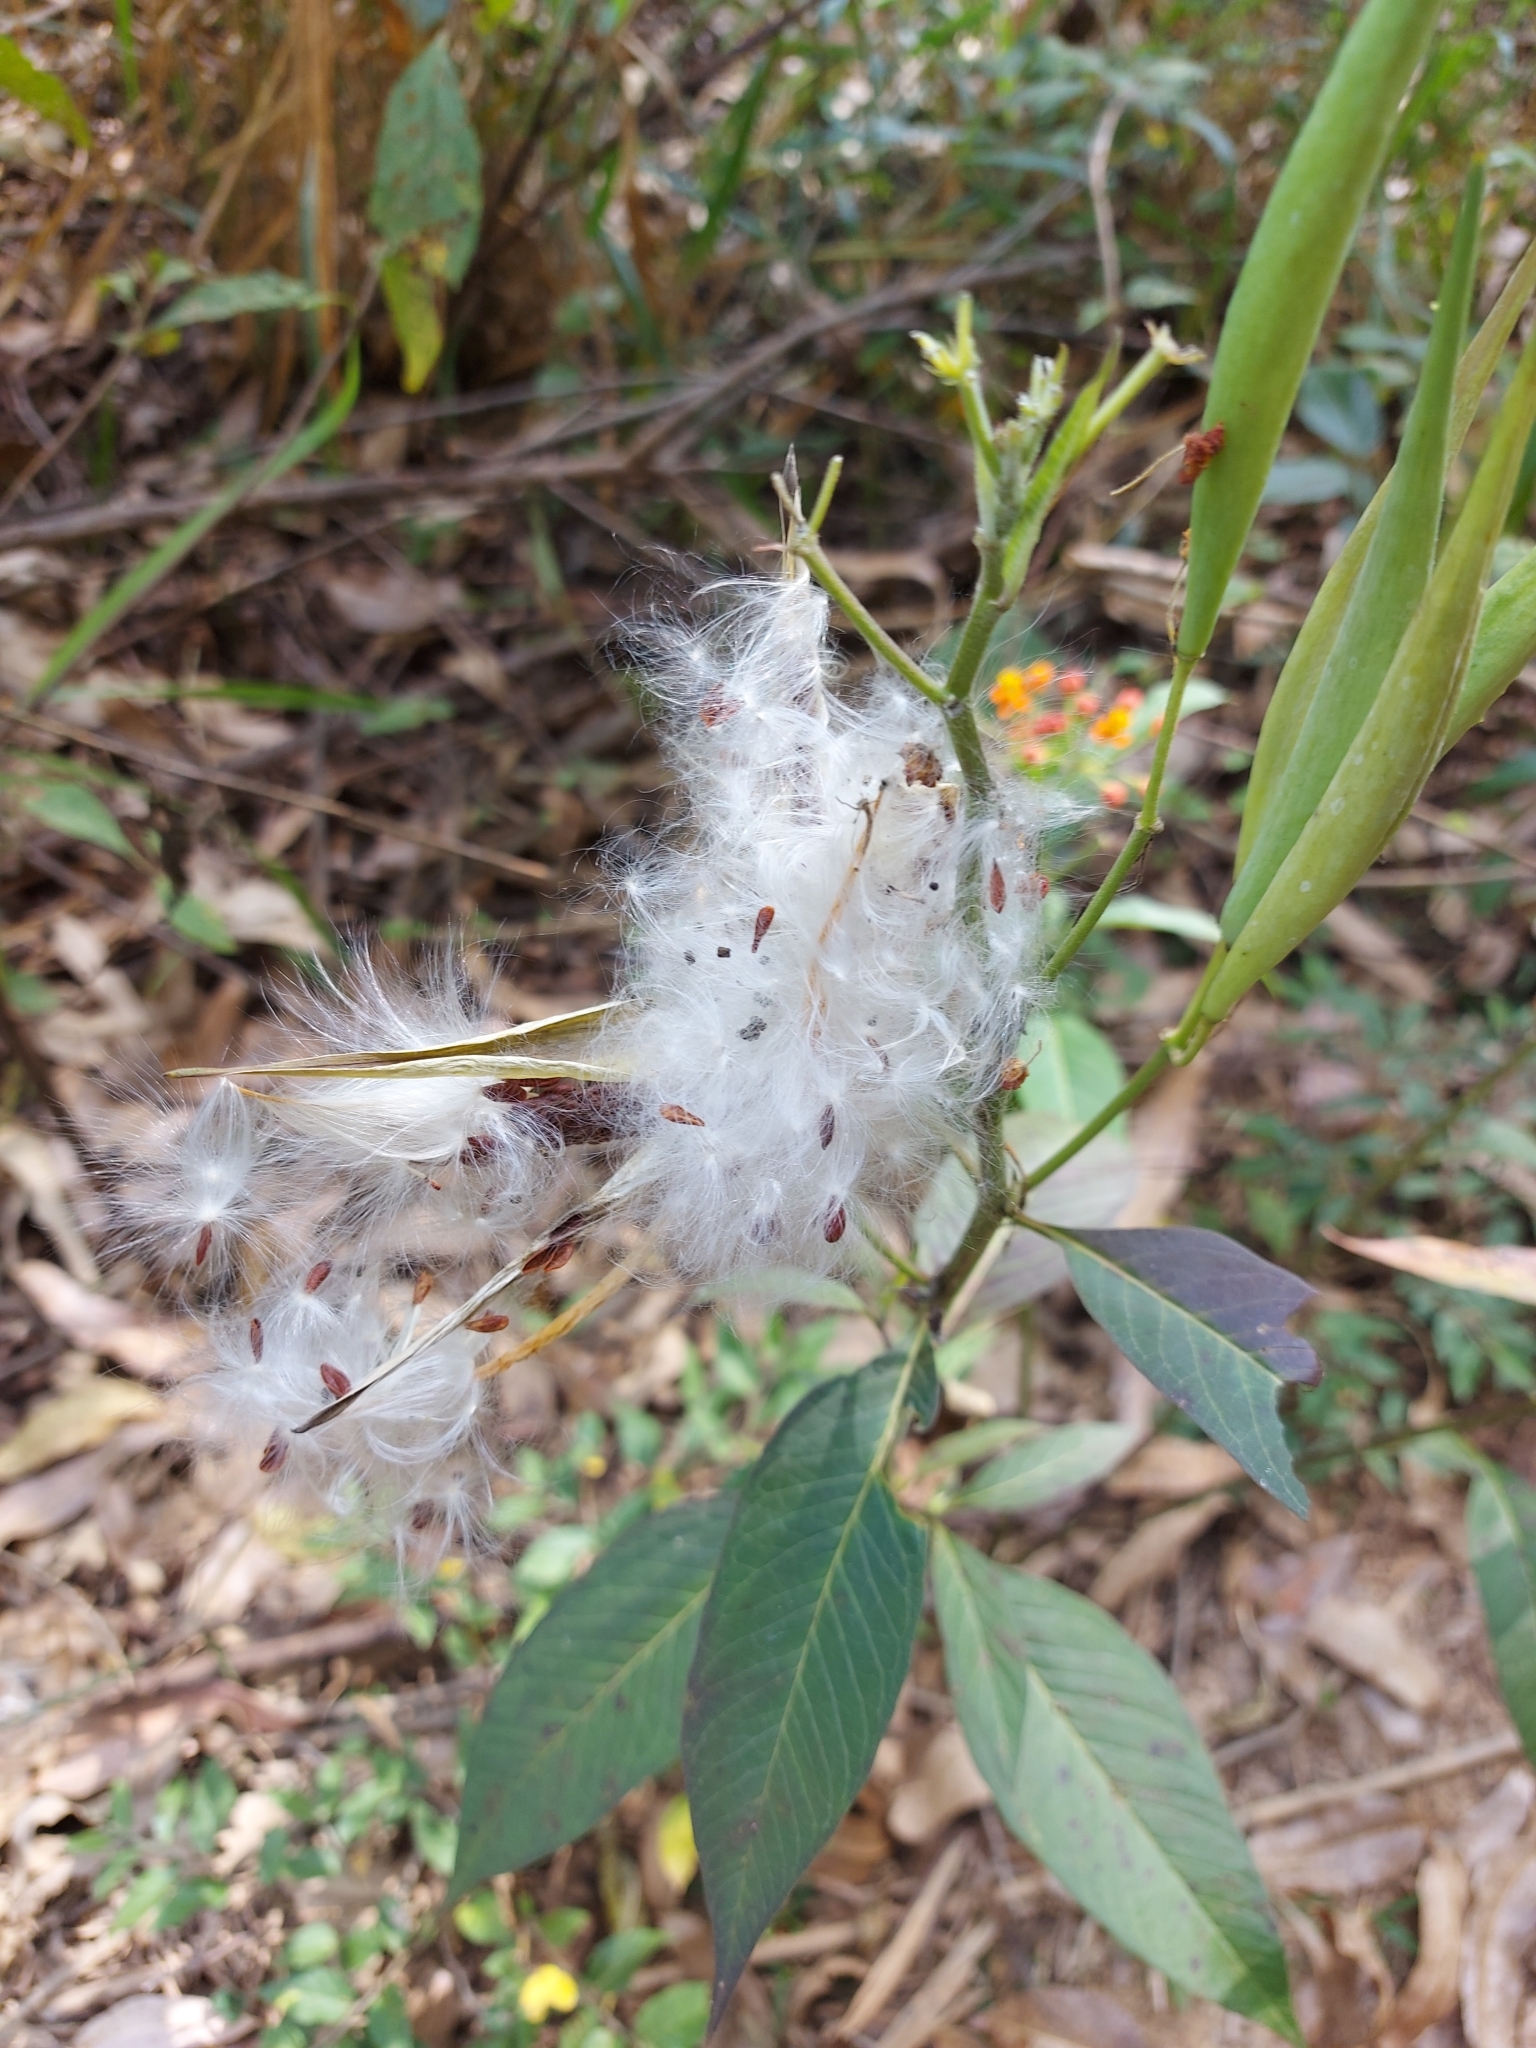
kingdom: Plantae
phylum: Tracheophyta
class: Magnoliopsida
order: Gentianales
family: Apocynaceae
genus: Asclepias
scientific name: Asclepias curassavica
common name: Bloodflower
